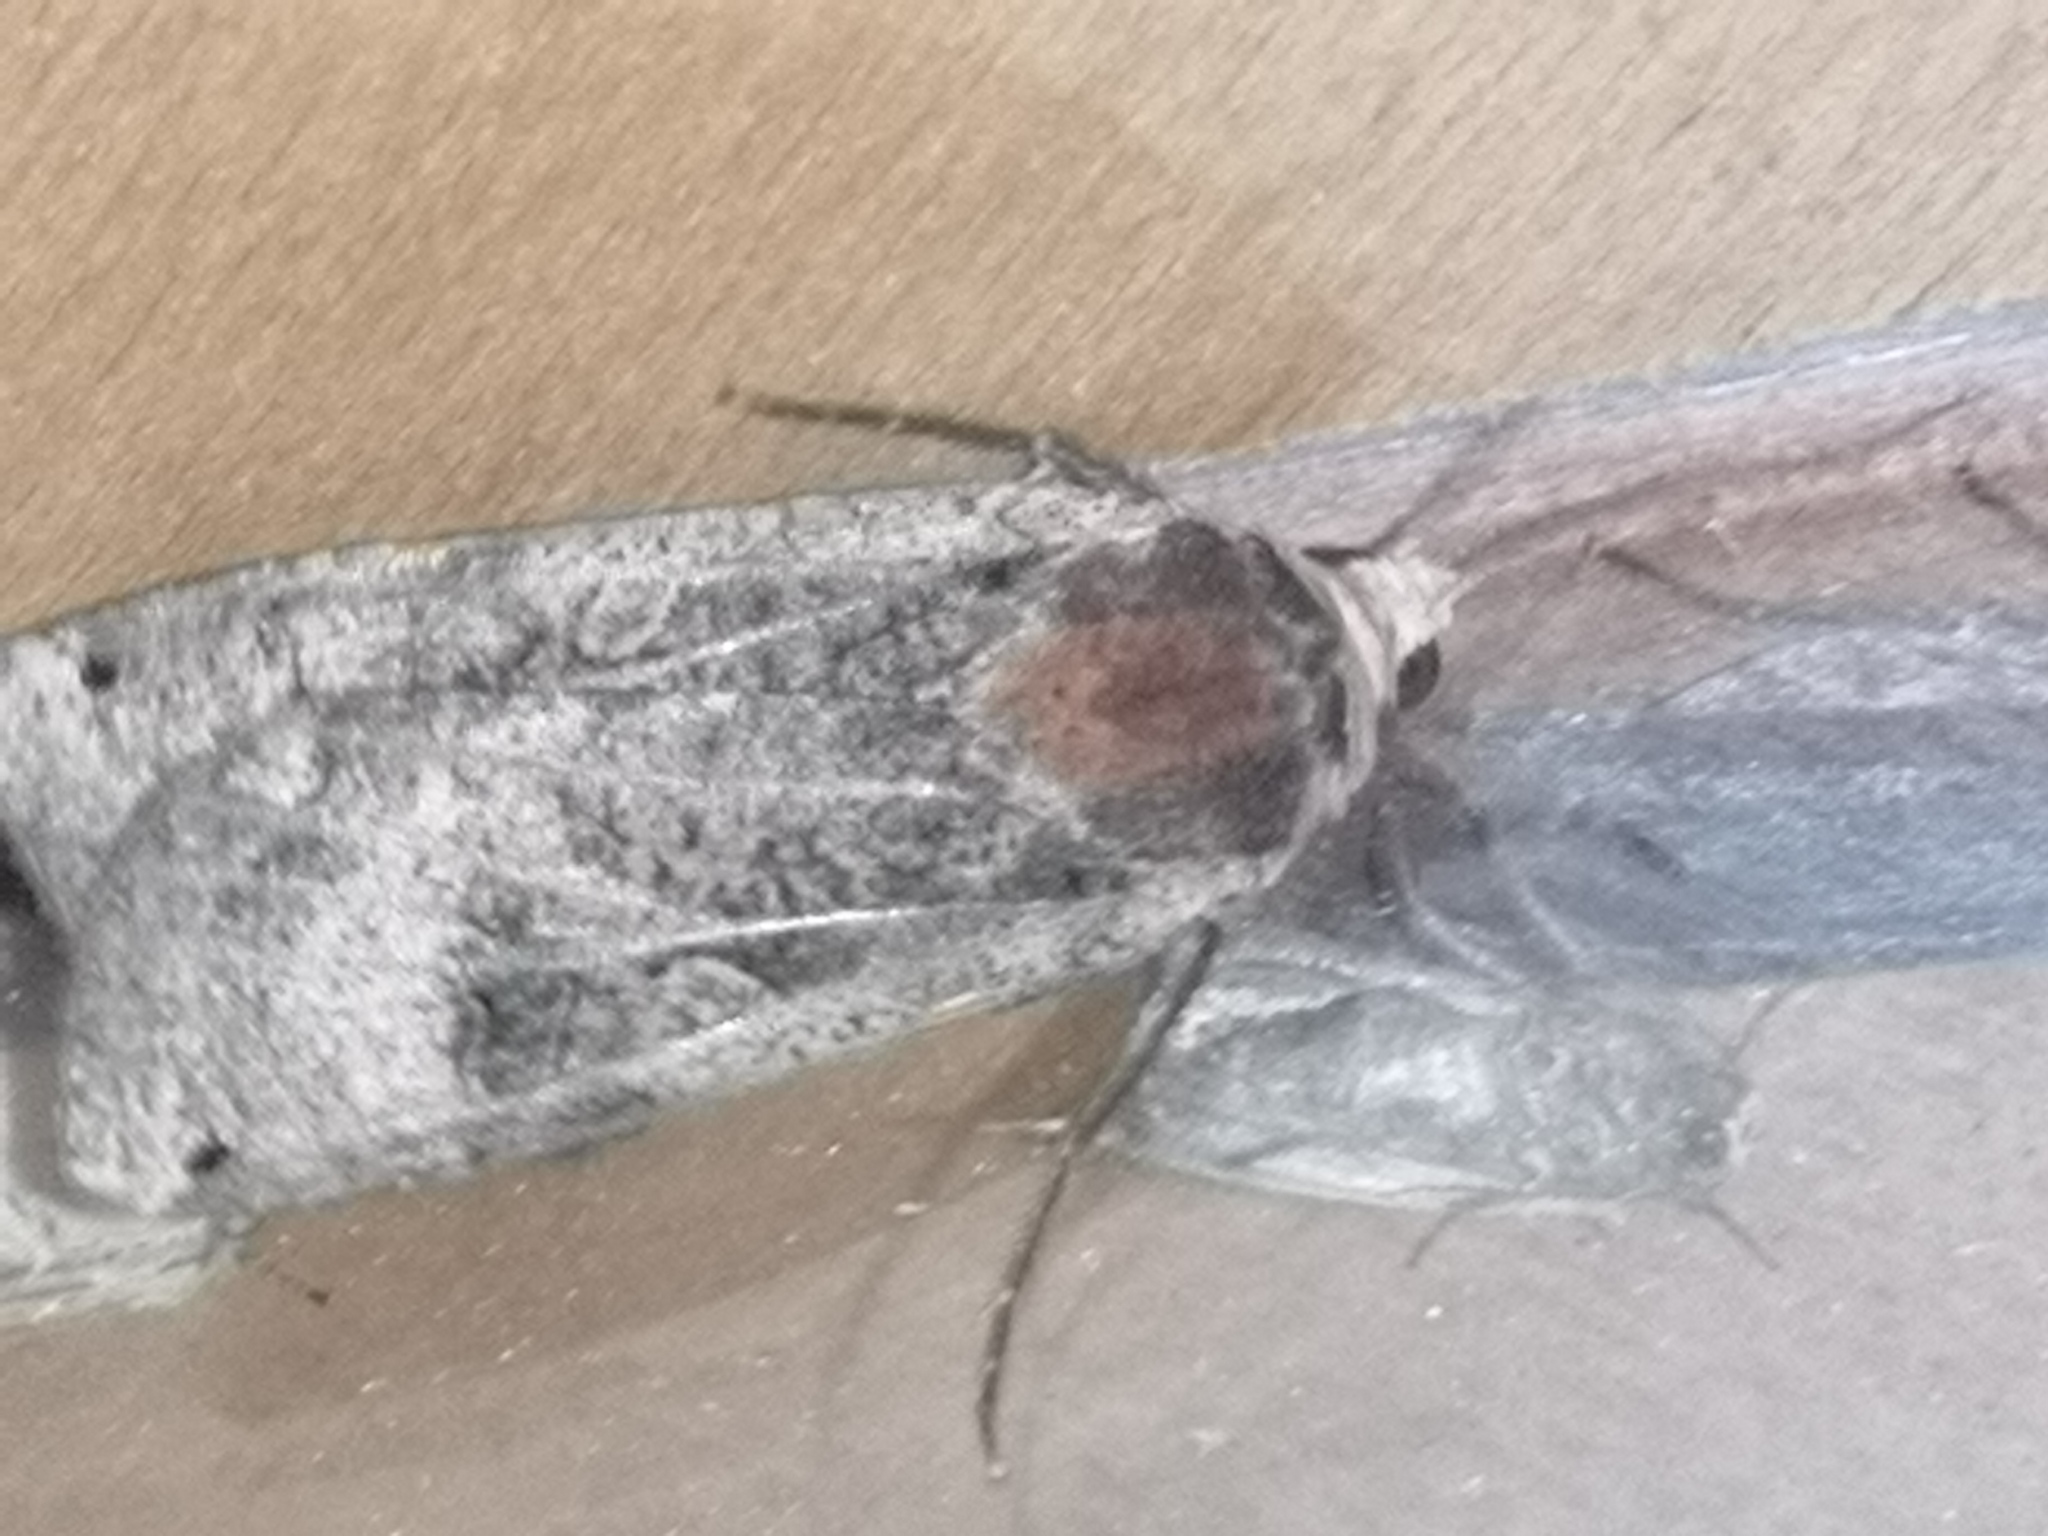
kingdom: Animalia
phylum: Arthropoda
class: Insecta
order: Lepidoptera
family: Noctuidae
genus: Noctua
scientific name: Noctua pronuba
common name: Large yellow underwing
